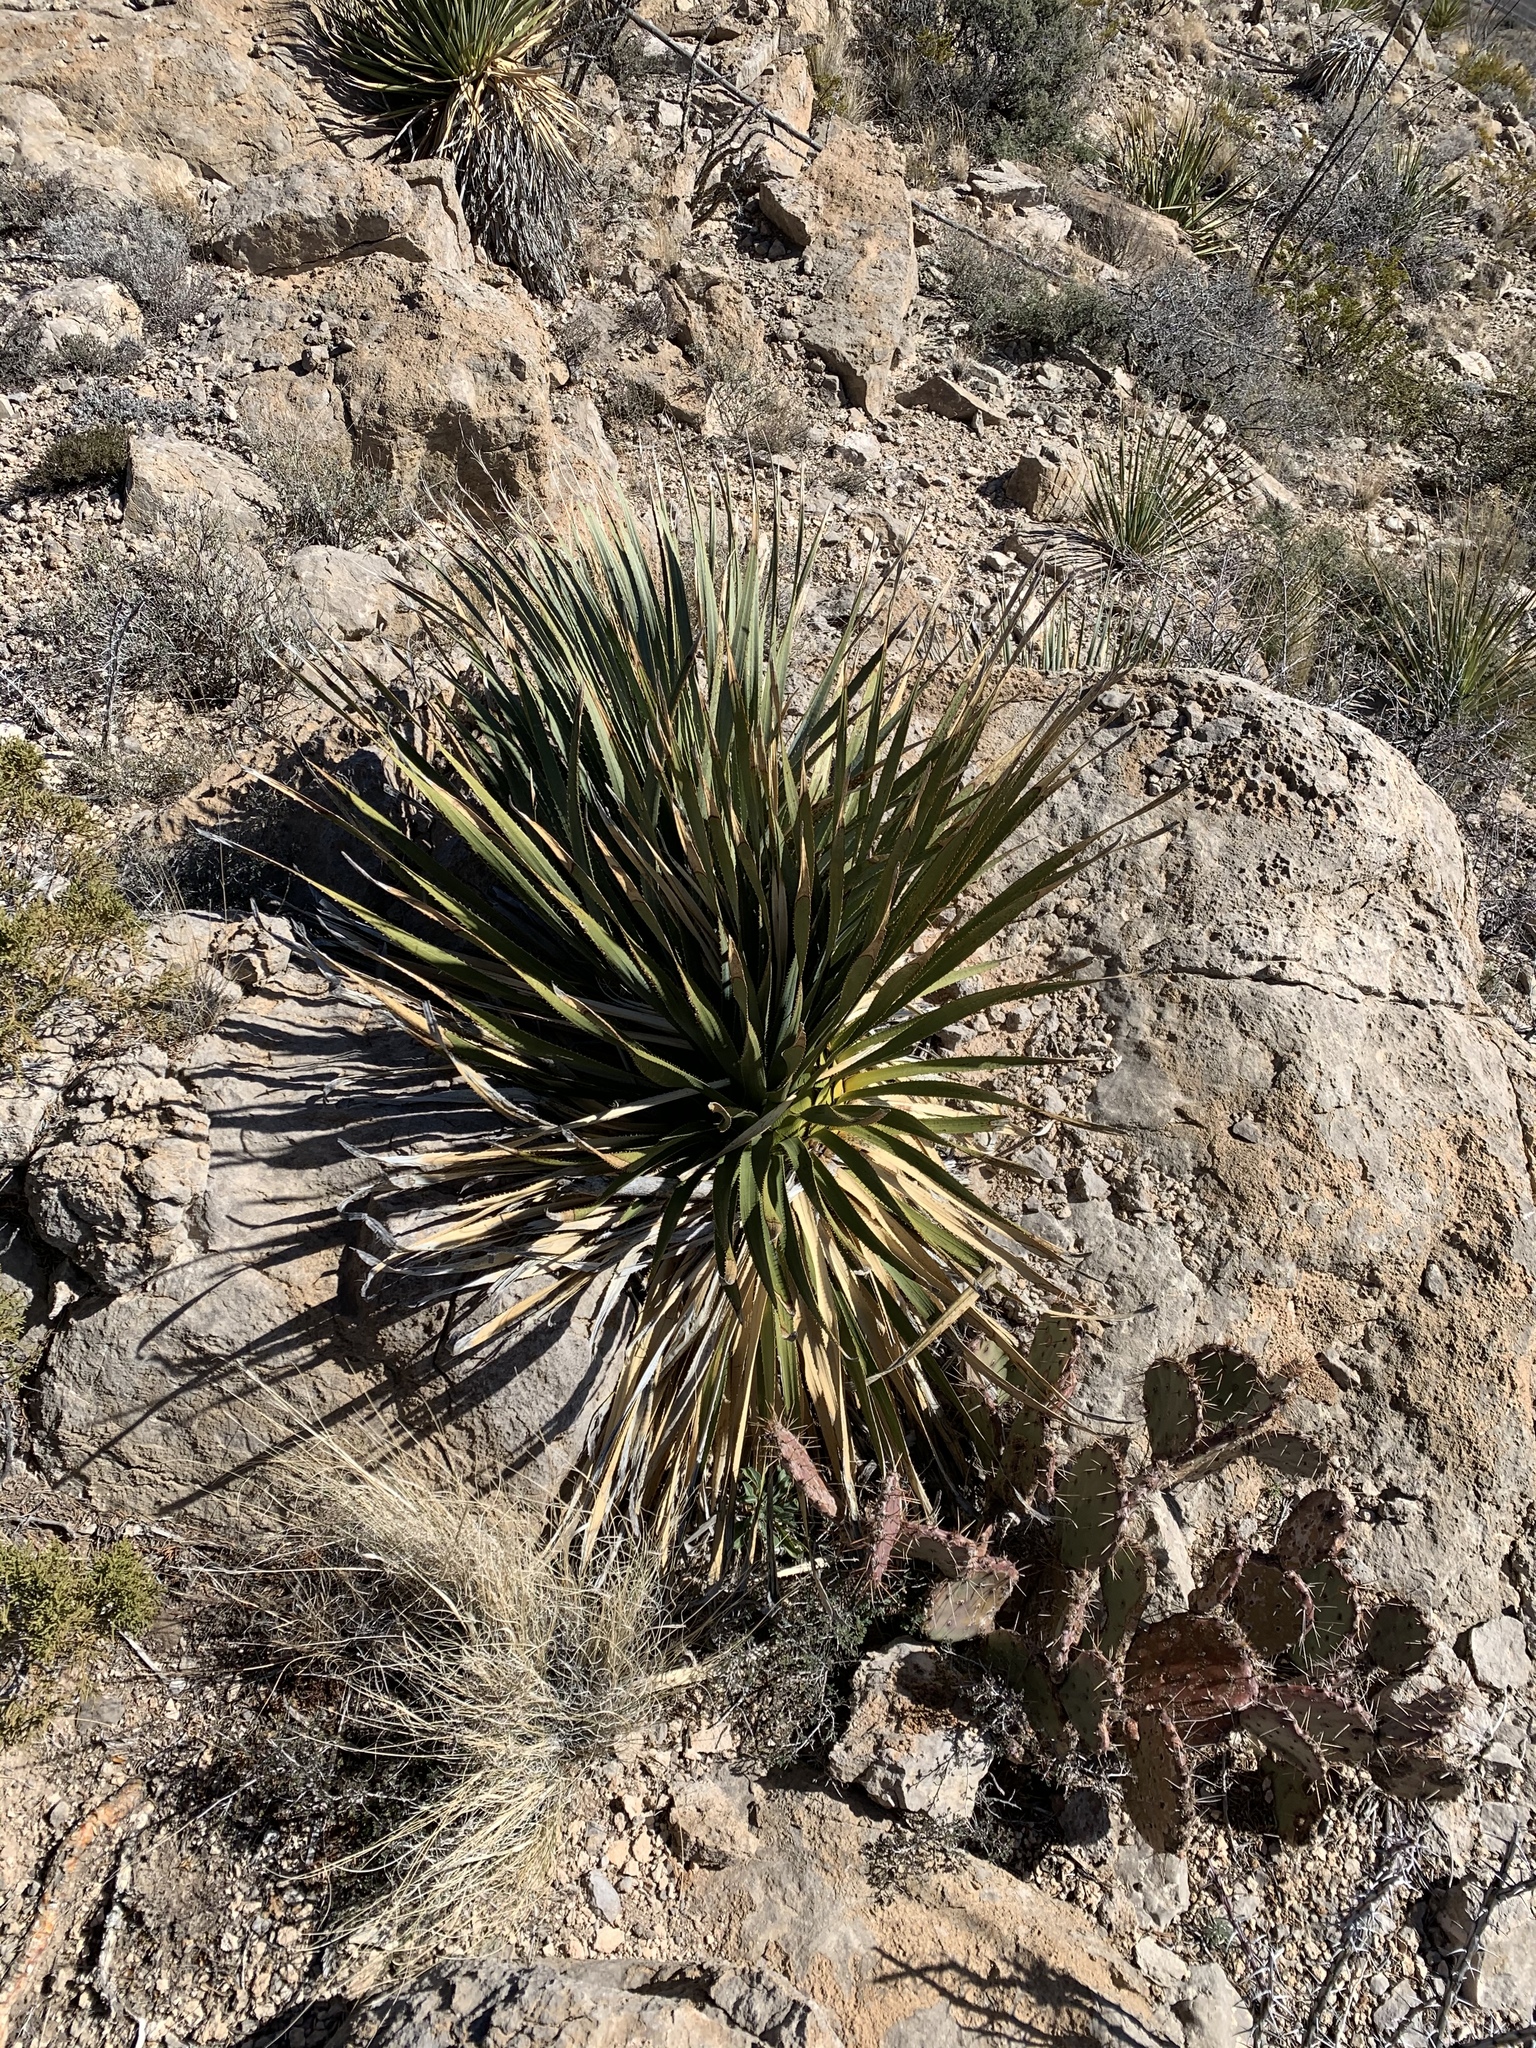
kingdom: Plantae
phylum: Tracheophyta
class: Liliopsida
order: Asparagales
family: Asparagaceae
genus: Dasylirion
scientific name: Dasylirion wheeleri
